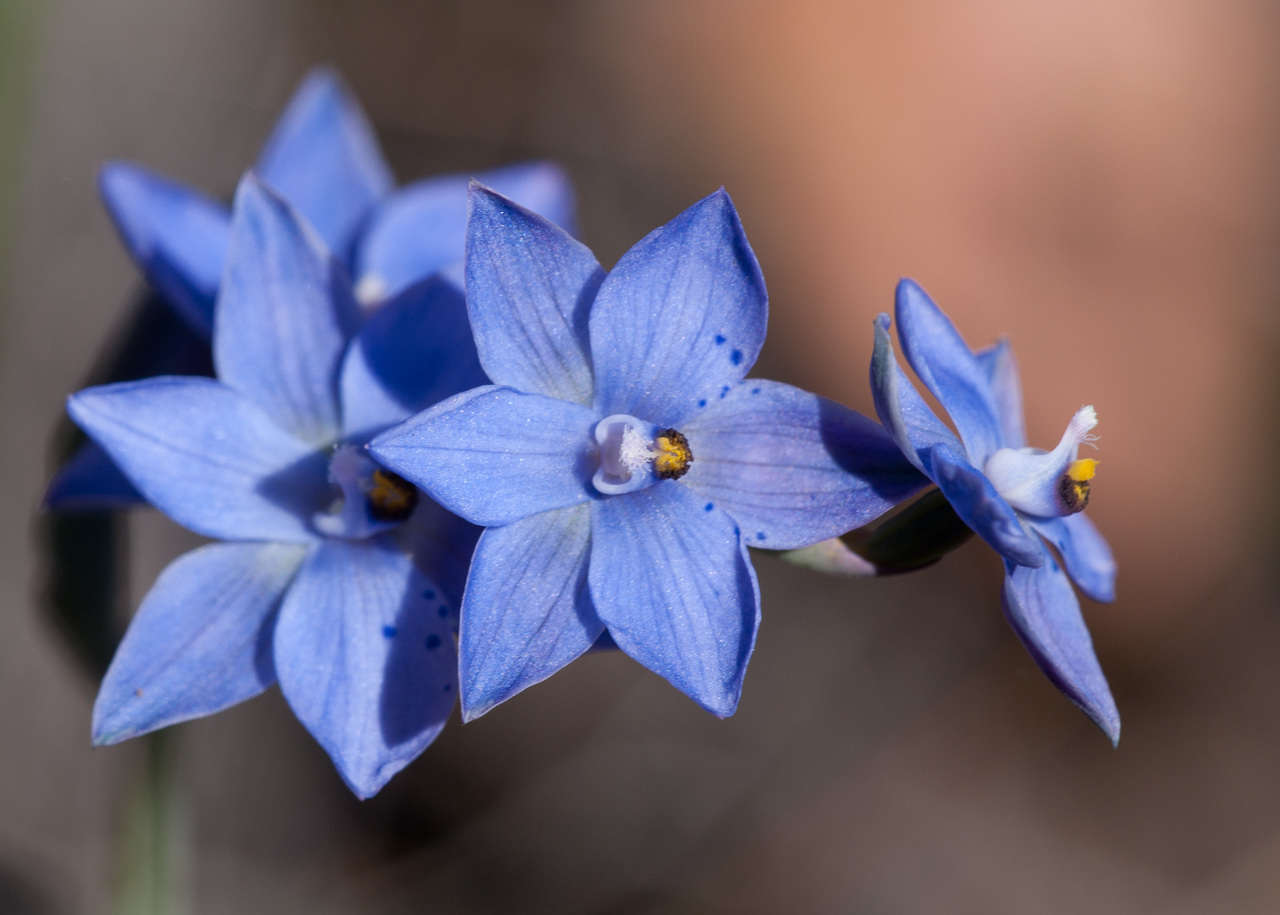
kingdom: Plantae
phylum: Tracheophyta
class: Liliopsida
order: Asparagales
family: Orchidaceae
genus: Thelymitra
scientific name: Thelymitra ixioides
